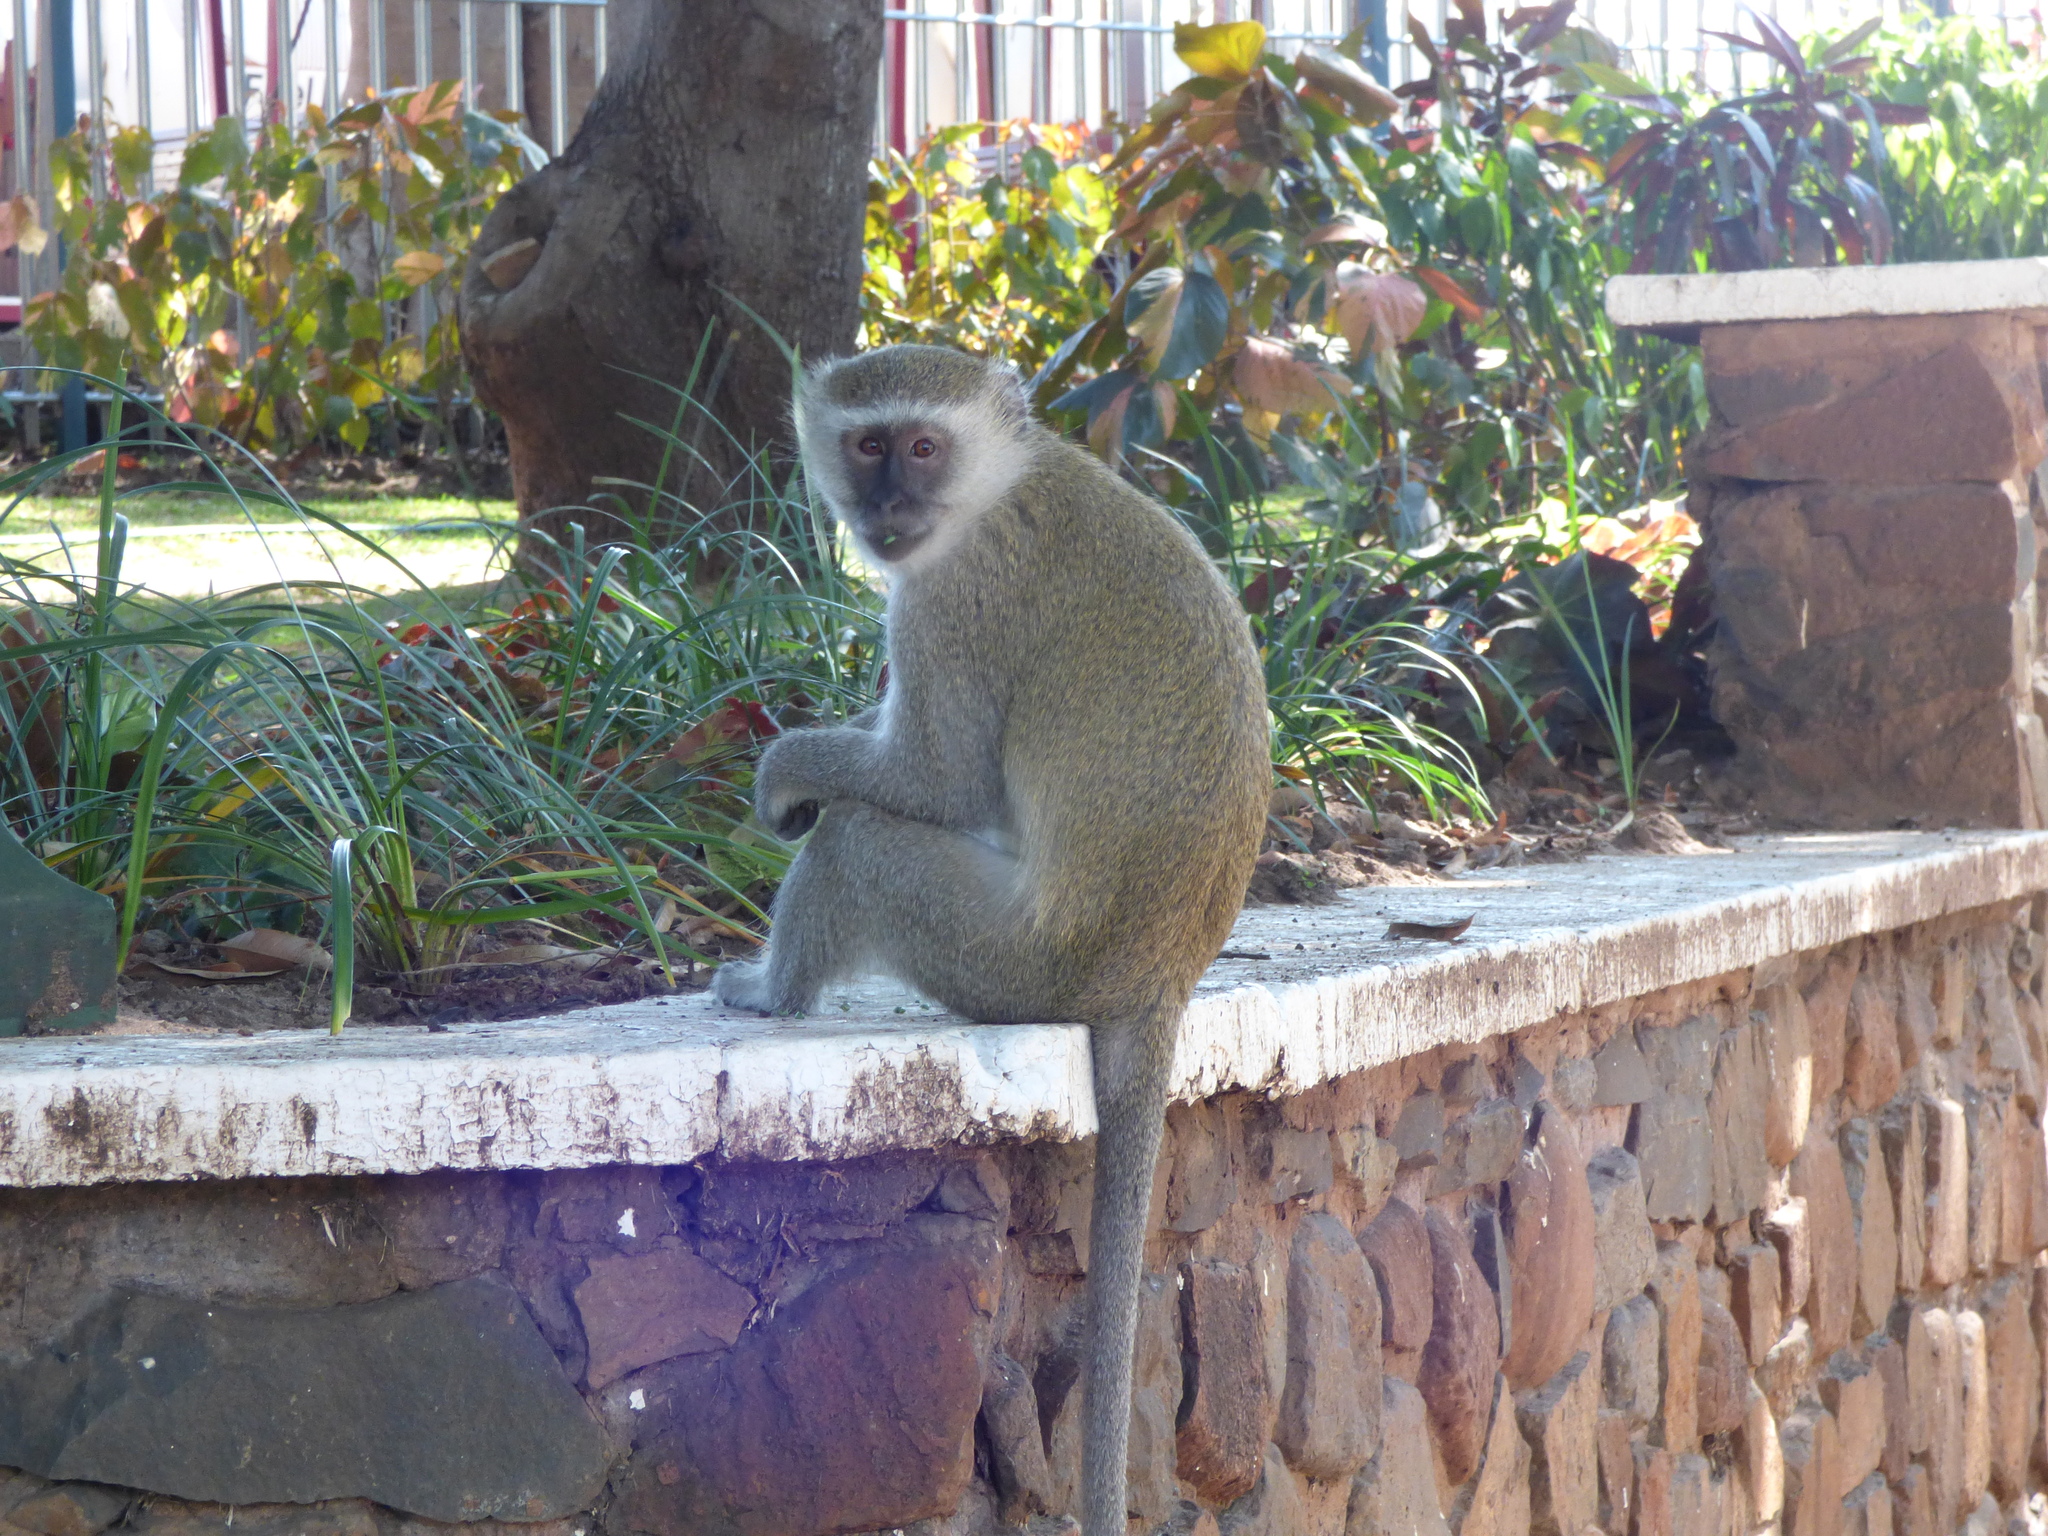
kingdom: Animalia
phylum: Chordata
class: Mammalia
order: Primates
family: Cercopithecidae
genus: Chlorocebus
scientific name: Chlorocebus pygerythrus
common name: Vervet monkey
